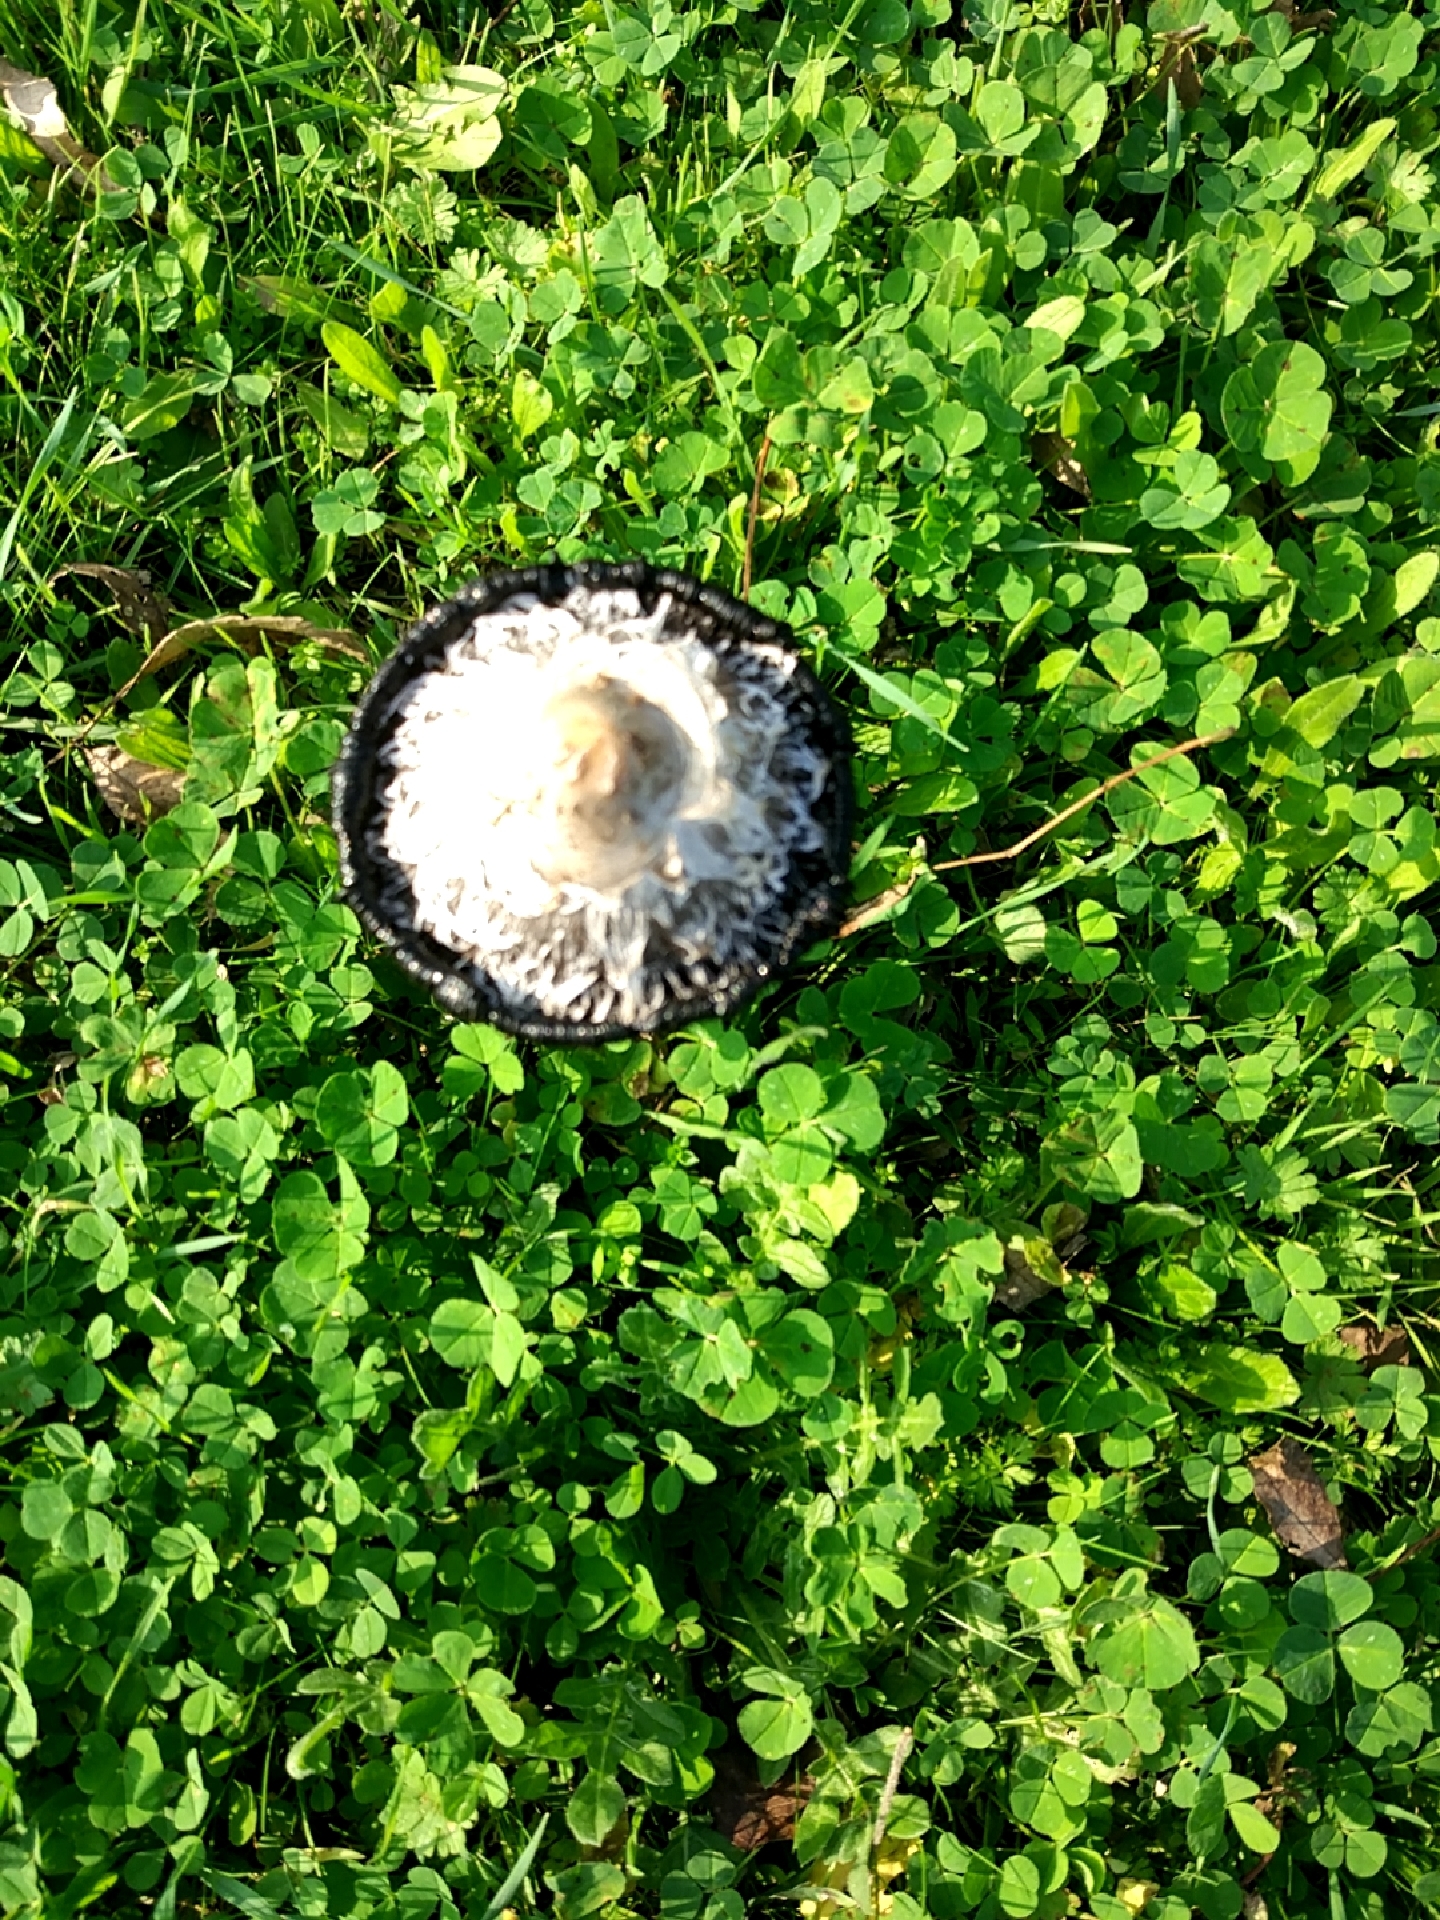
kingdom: Fungi
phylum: Basidiomycota
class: Agaricomycetes
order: Agaricales
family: Agaricaceae
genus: Coprinus
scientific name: Coprinus comatus
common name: Lawyer's wig
